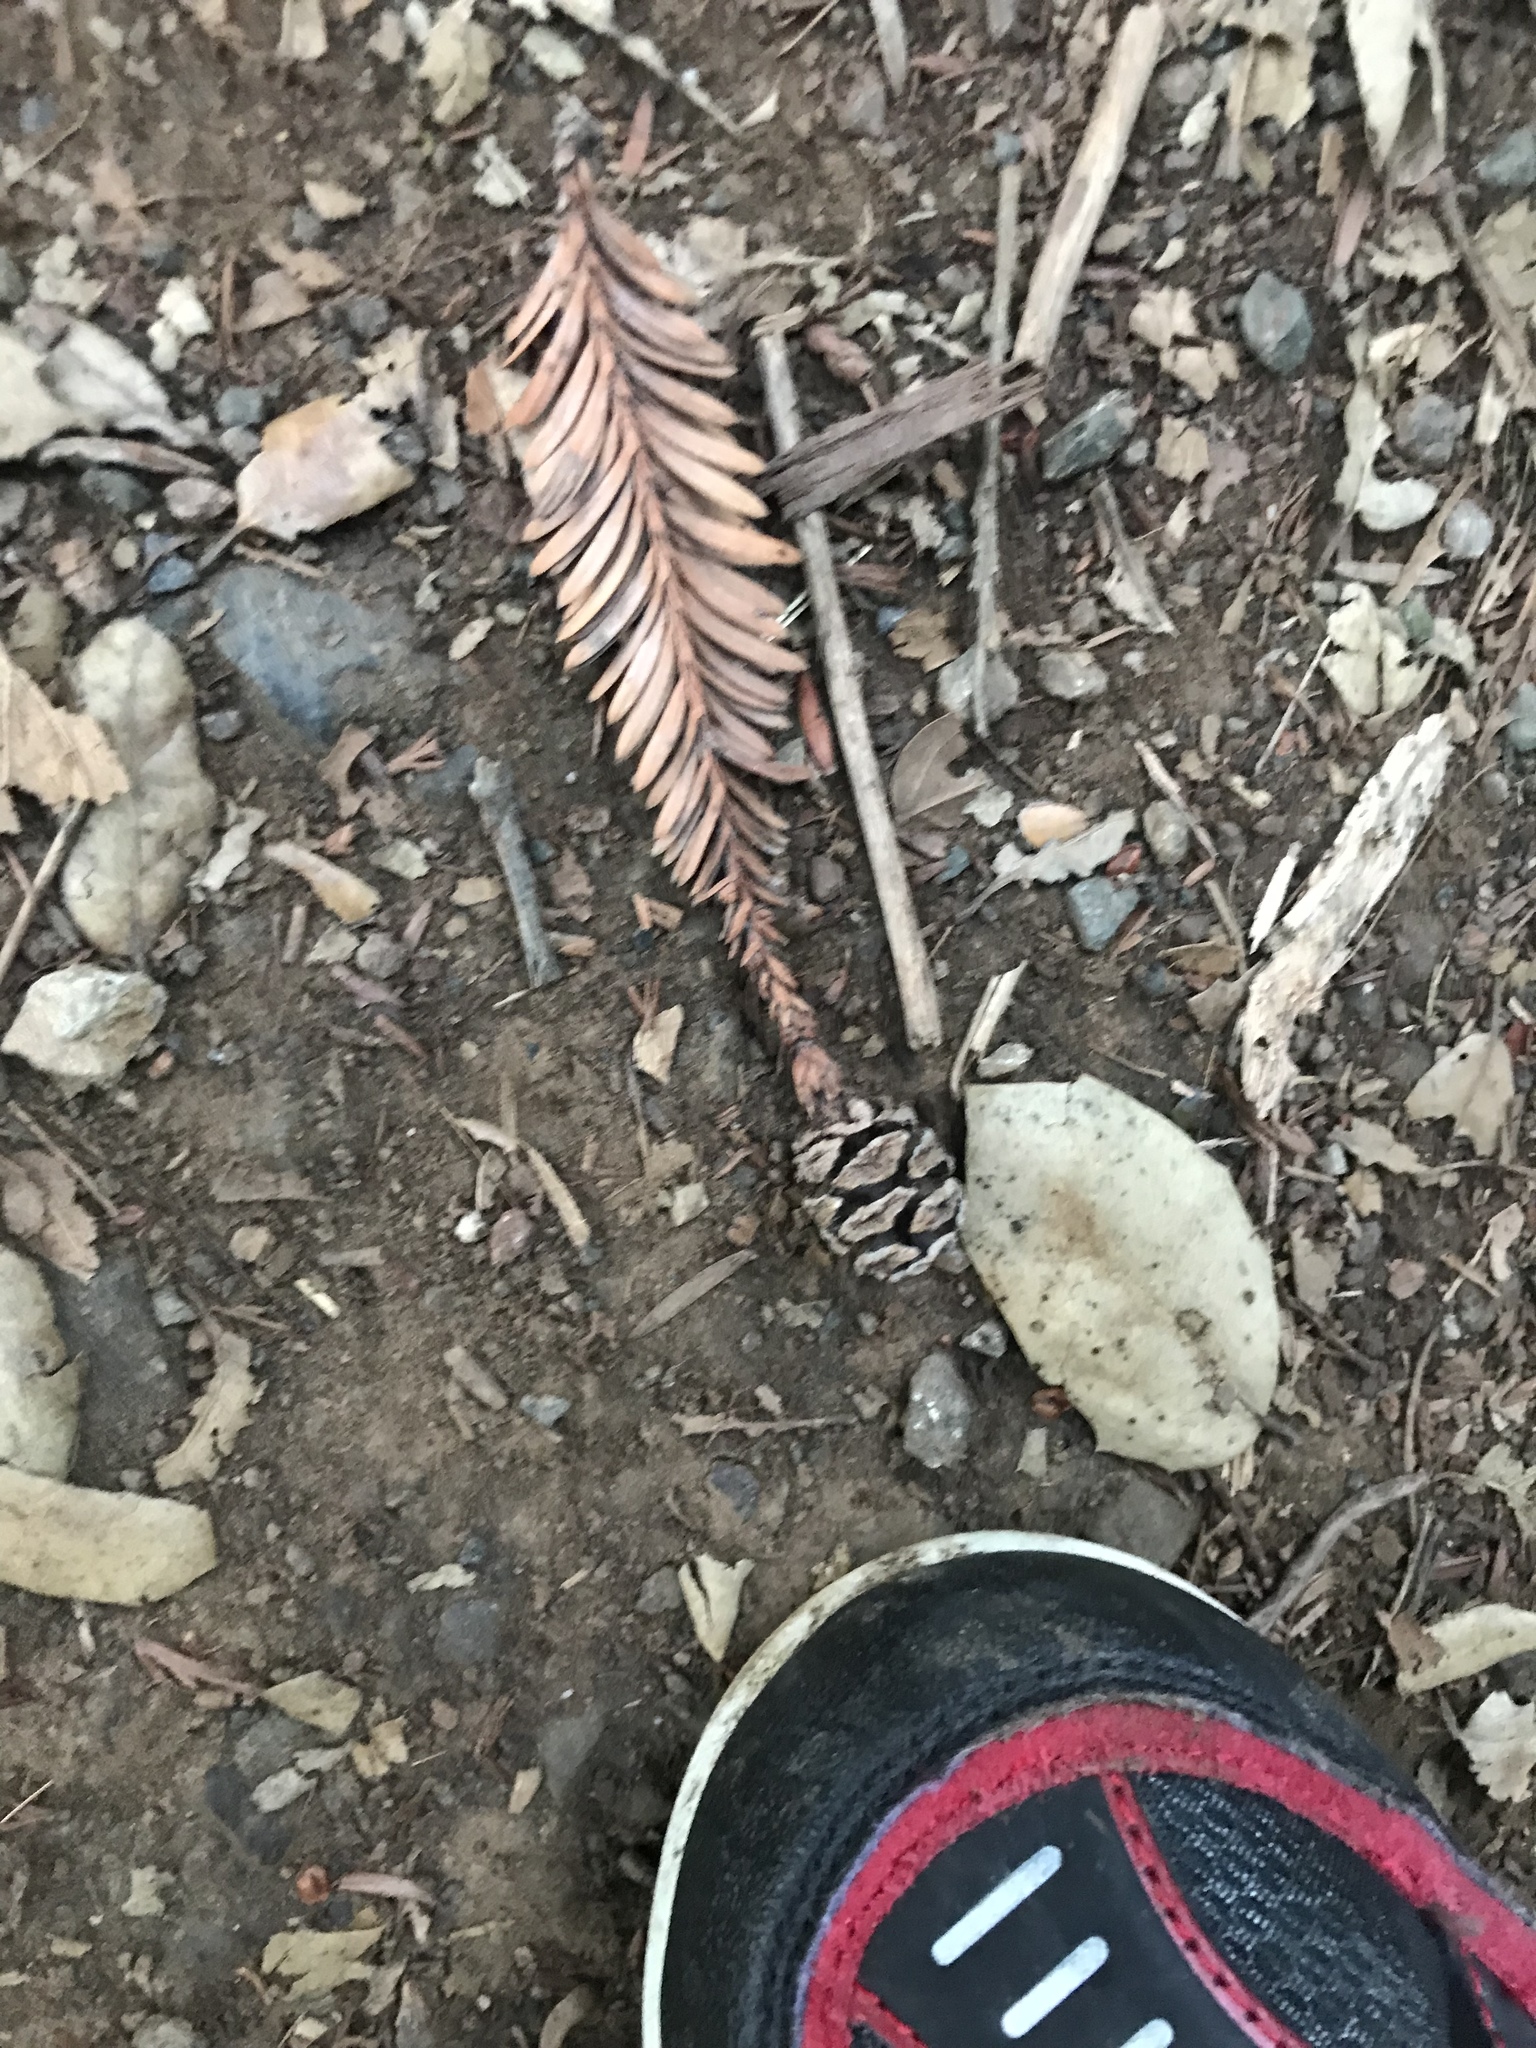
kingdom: Plantae
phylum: Tracheophyta
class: Pinopsida
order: Pinales
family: Cupressaceae
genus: Sequoia
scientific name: Sequoia sempervirens
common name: Coast redwood
